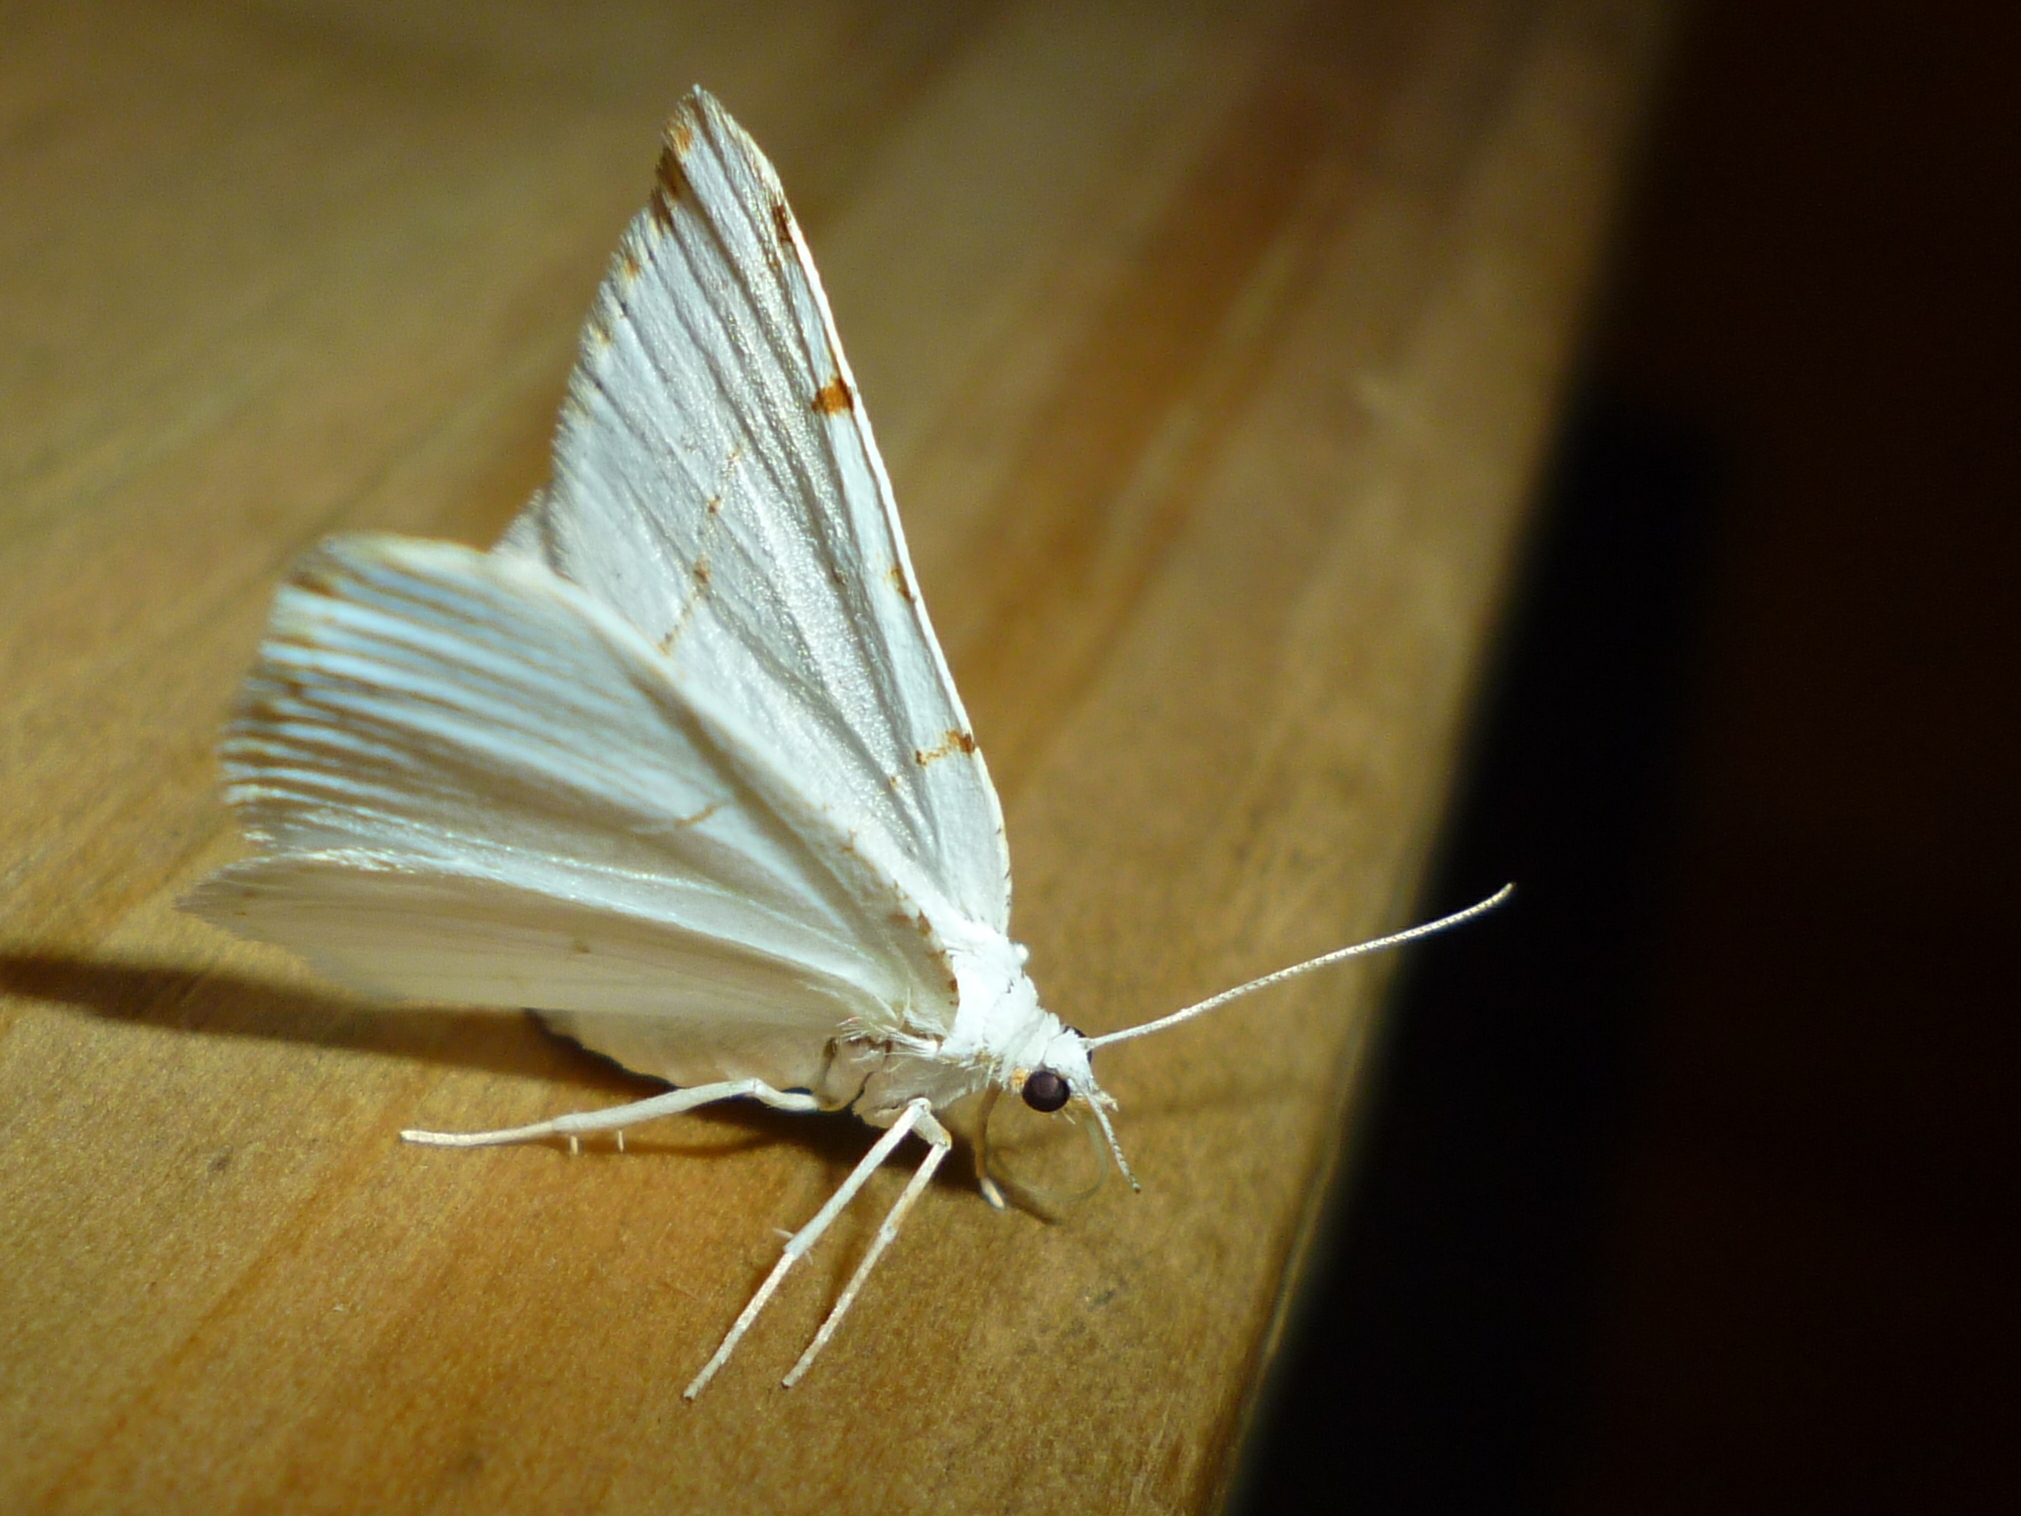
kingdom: Animalia
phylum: Arthropoda
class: Insecta
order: Lepidoptera
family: Geometridae
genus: Macaria
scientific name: Macaria pustularia
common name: Lesser maple spanworm moth
